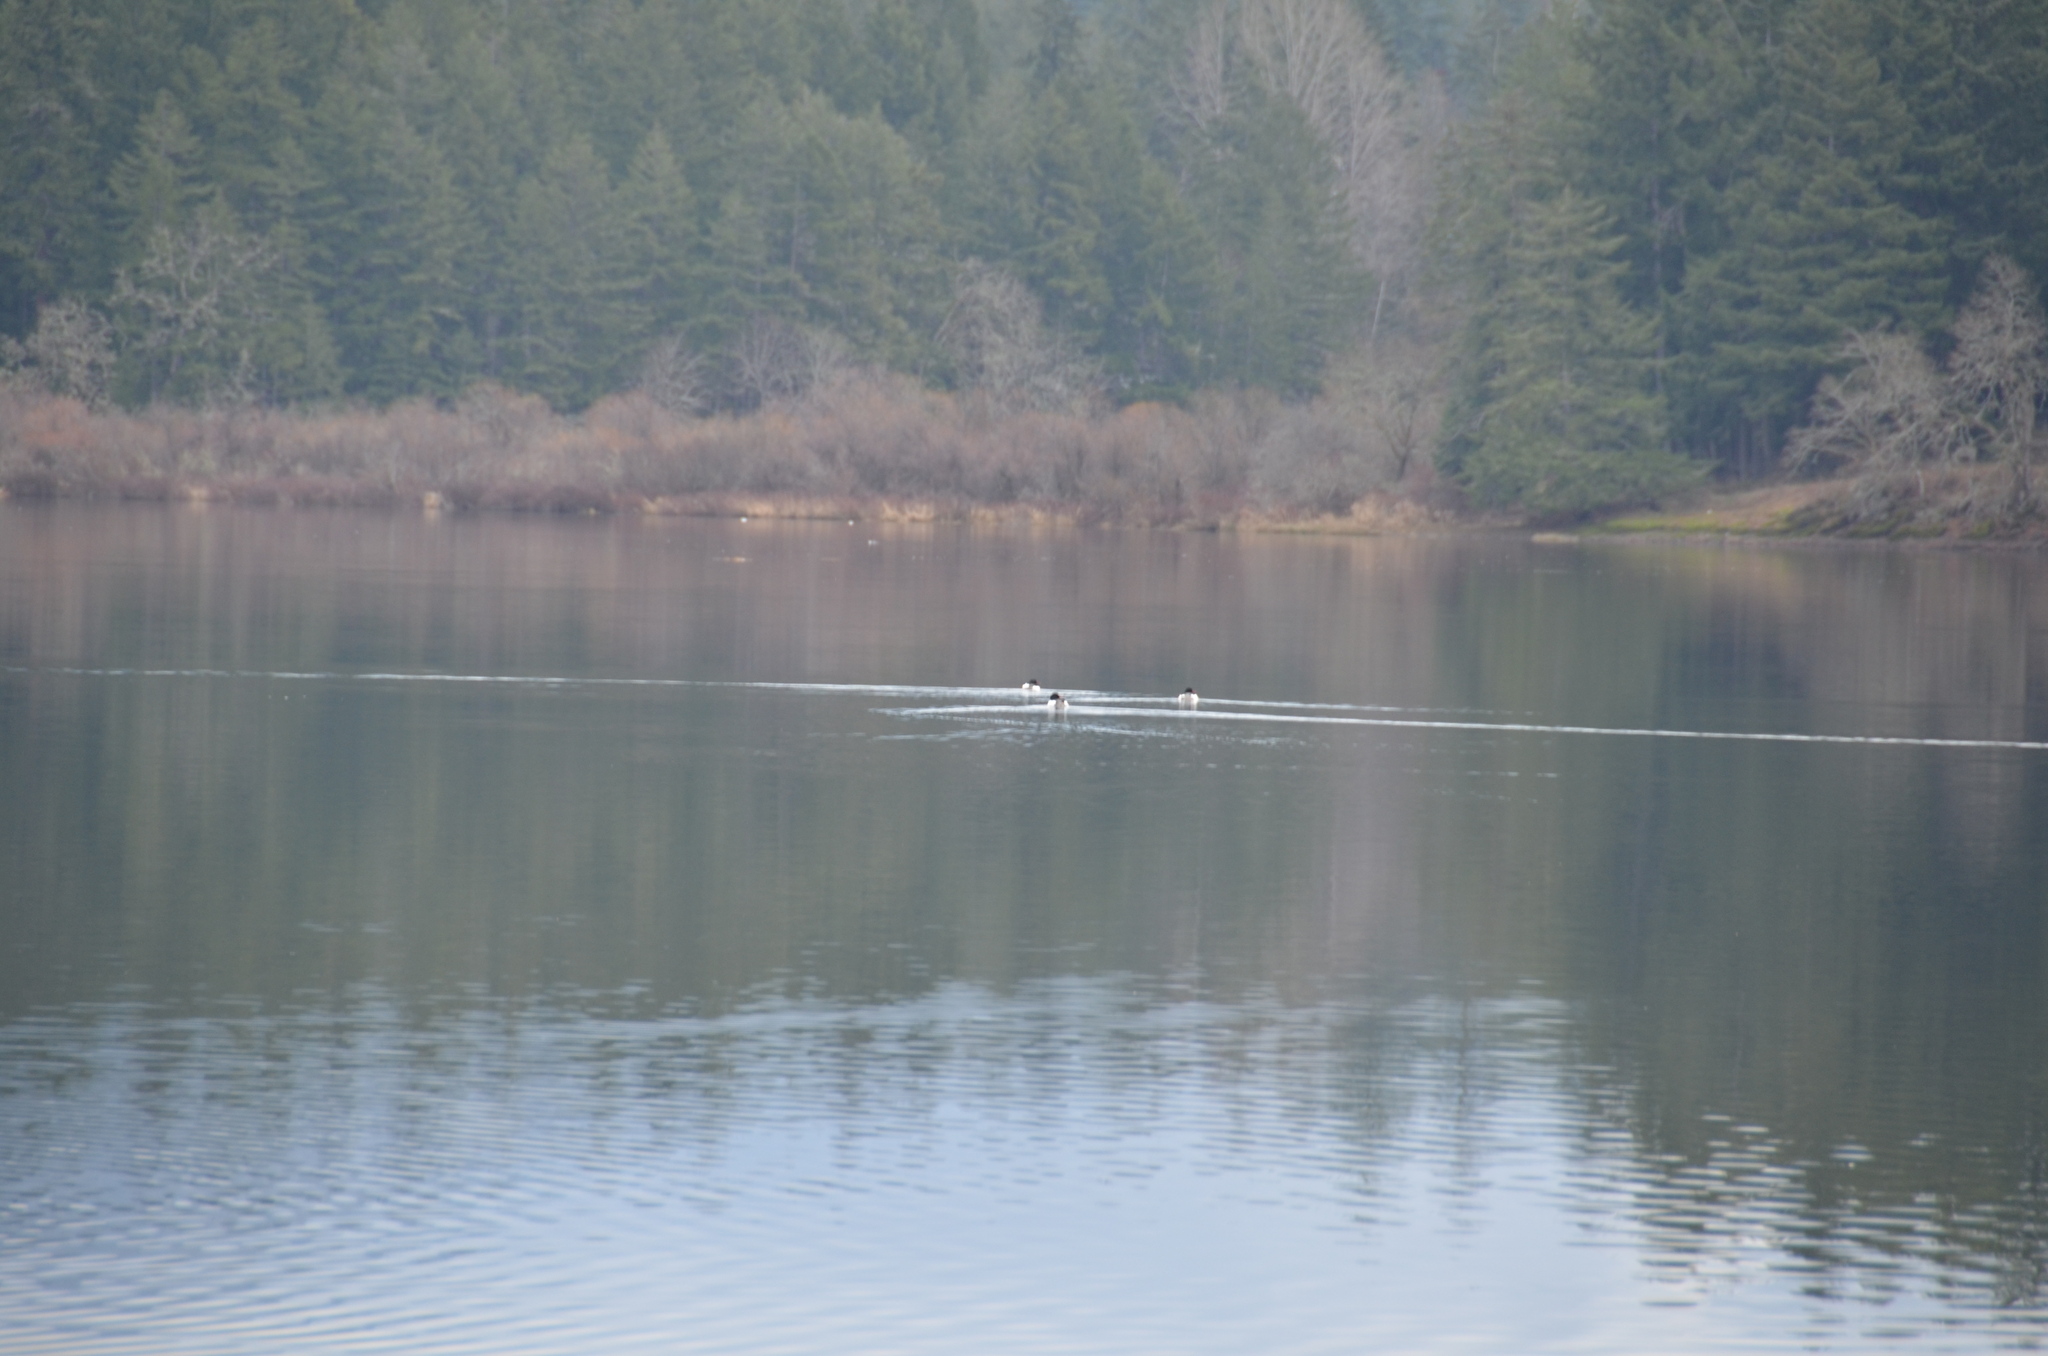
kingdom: Animalia
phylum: Chordata
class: Aves
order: Anseriformes
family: Anatidae
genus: Mergus
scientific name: Mergus merganser
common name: Common merganser
